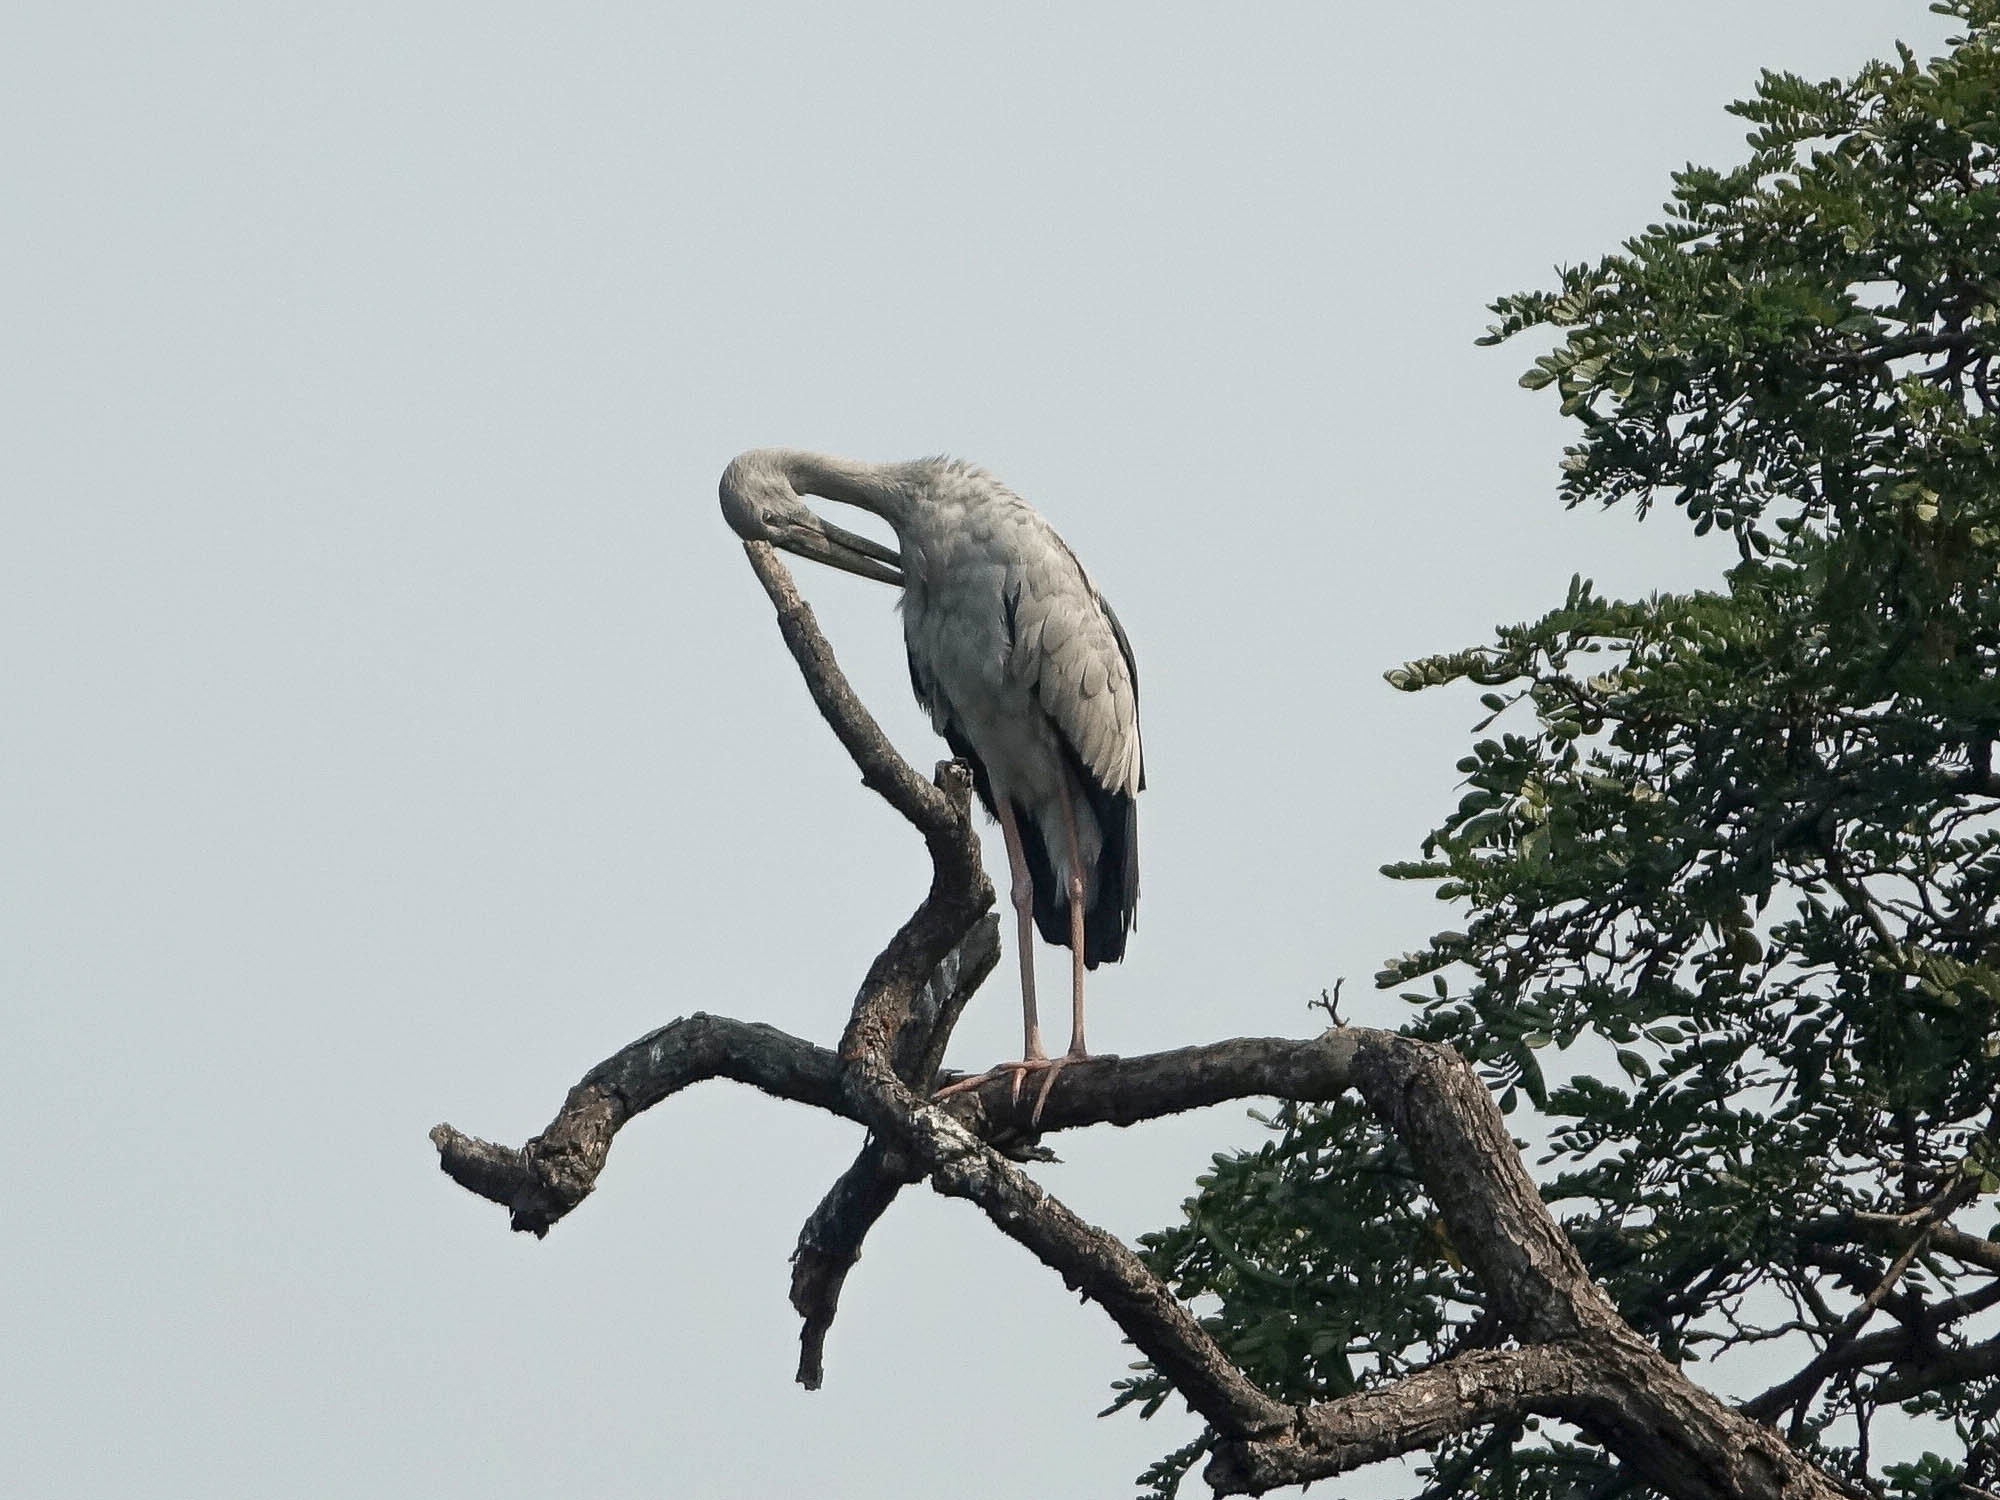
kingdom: Animalia
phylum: Chordata
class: Aves
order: Ciconiiformes
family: Ciconiidae
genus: Anastomus
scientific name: Anastomus oscitans
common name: Asian openbill
